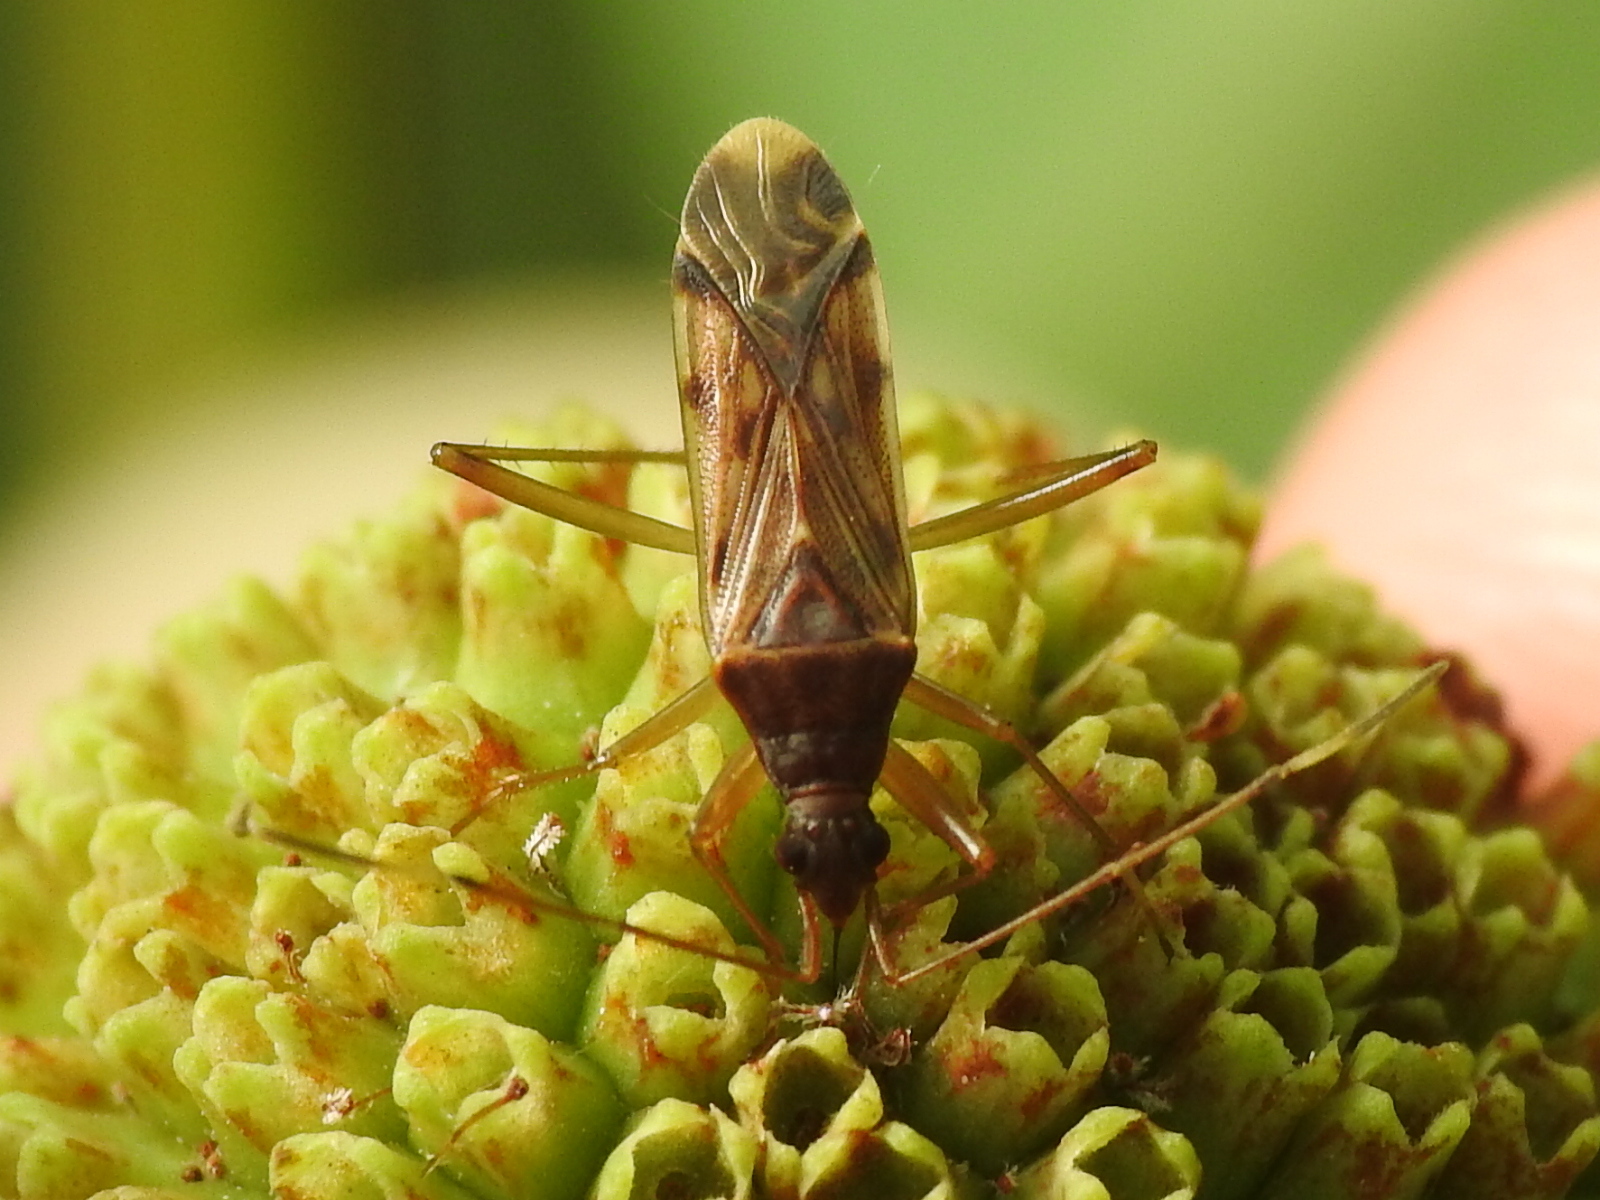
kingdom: Animalia
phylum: Arthropoda
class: Insecta
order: Hemiptera
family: Rhyparochromidae
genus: Ozophora
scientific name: Ozophora depicturata
